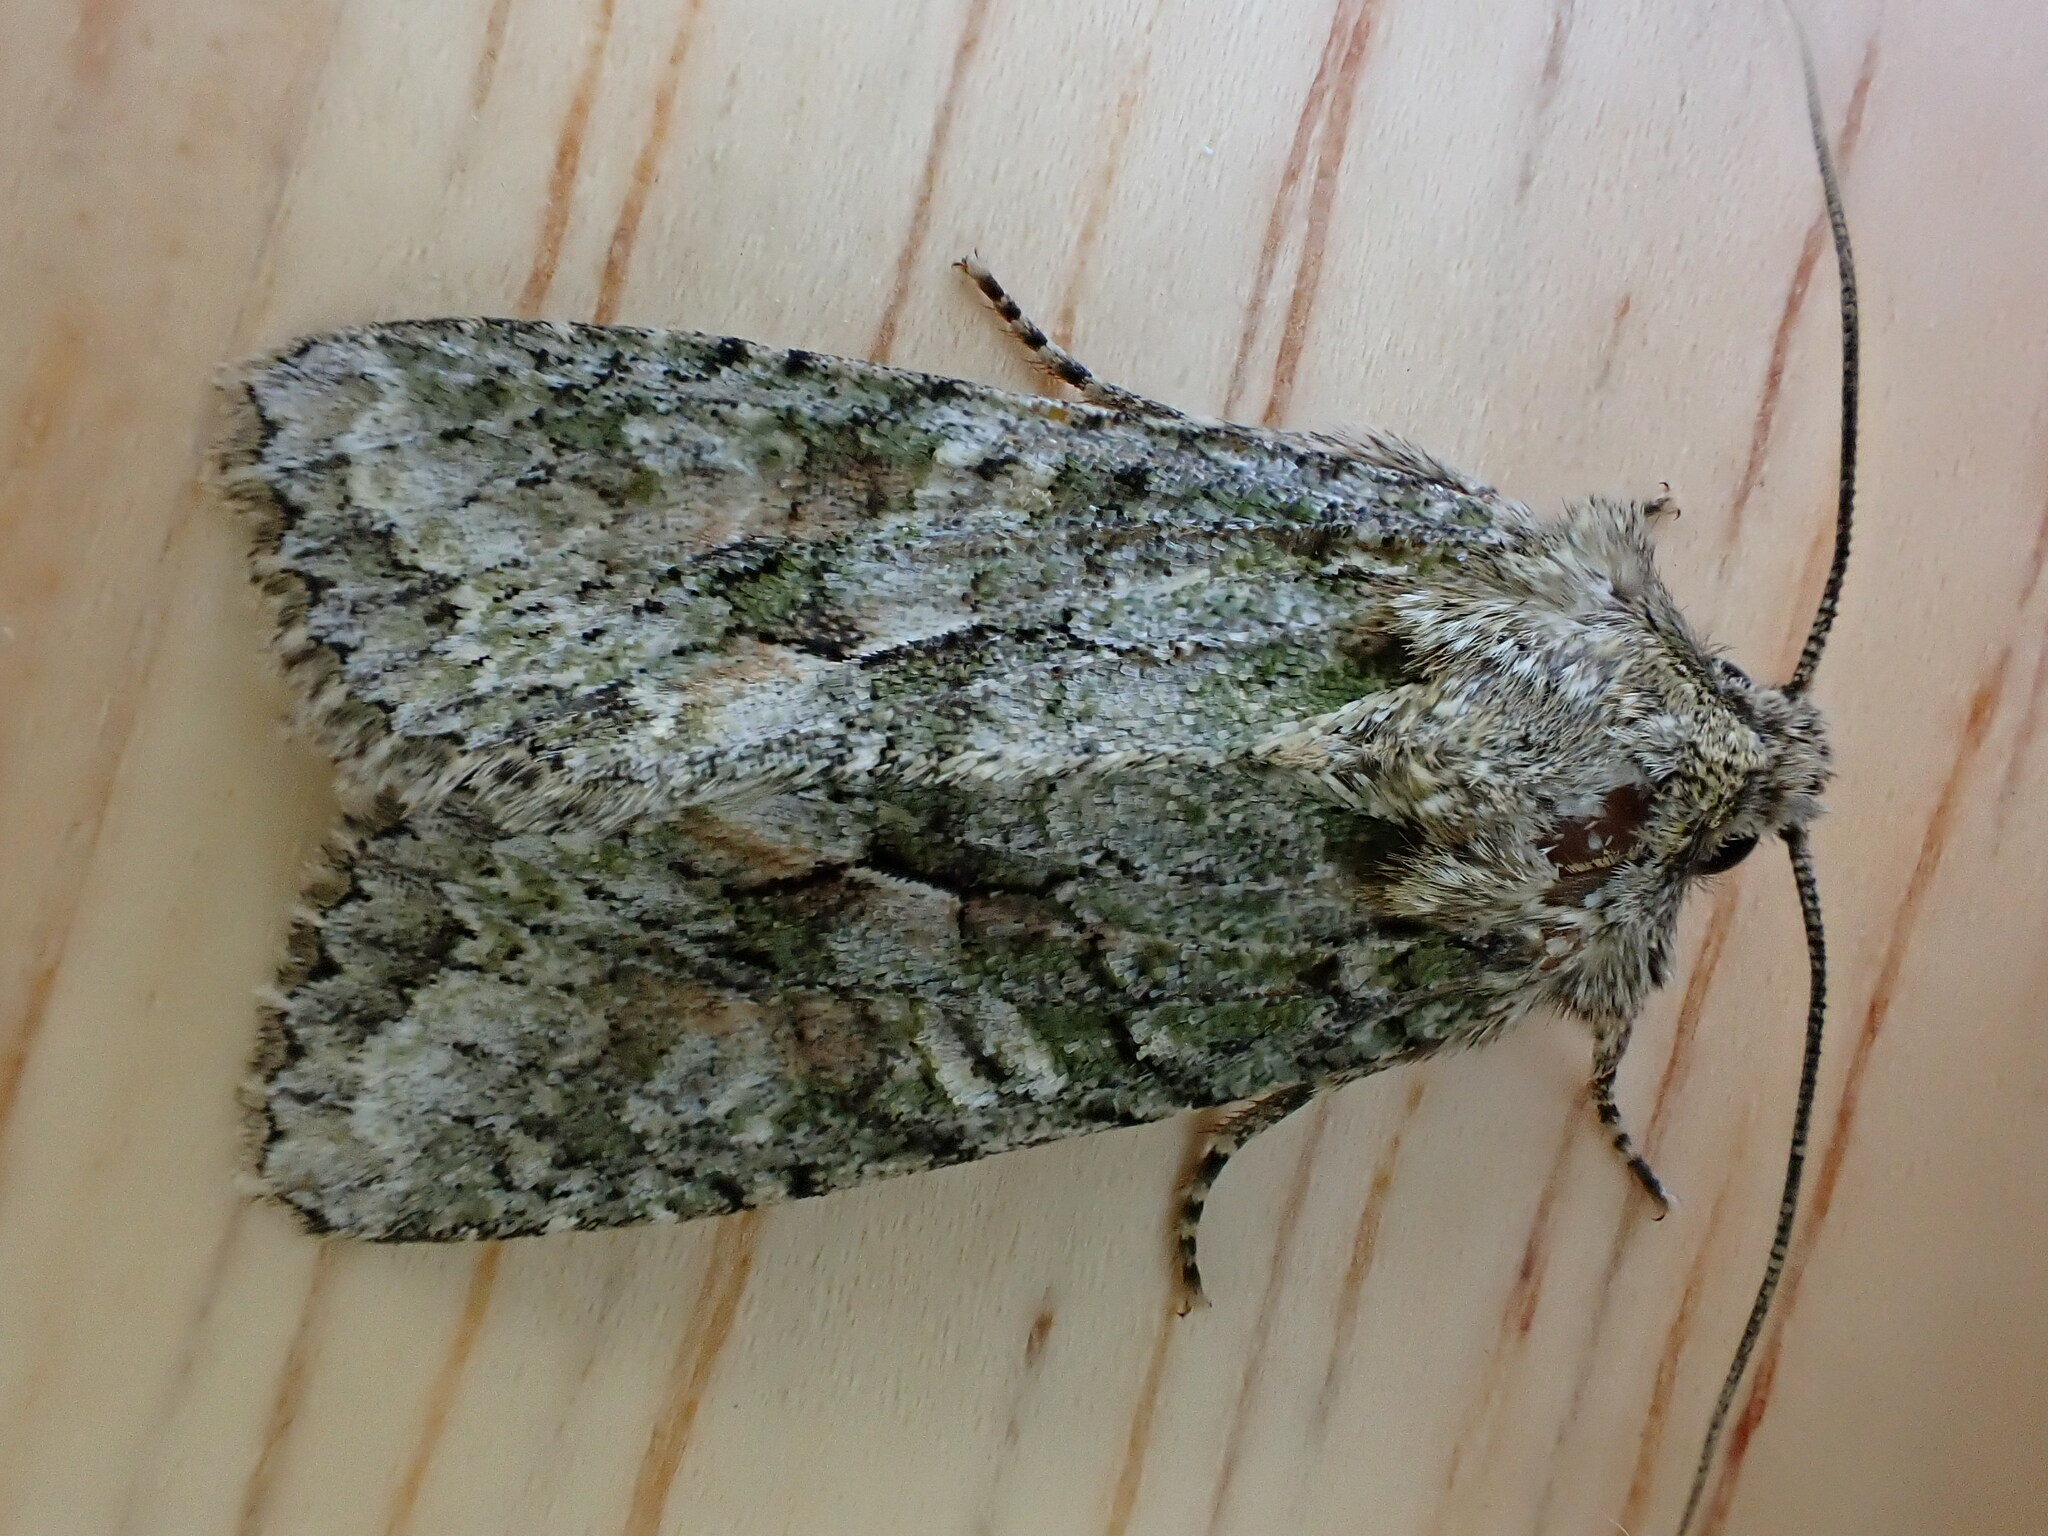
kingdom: Animalia
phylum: Arthropoda
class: Insecta
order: Lepidoptera
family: Noctuidae
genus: Dryobotodes
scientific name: Dryobotodes eremita
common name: Brindled green
